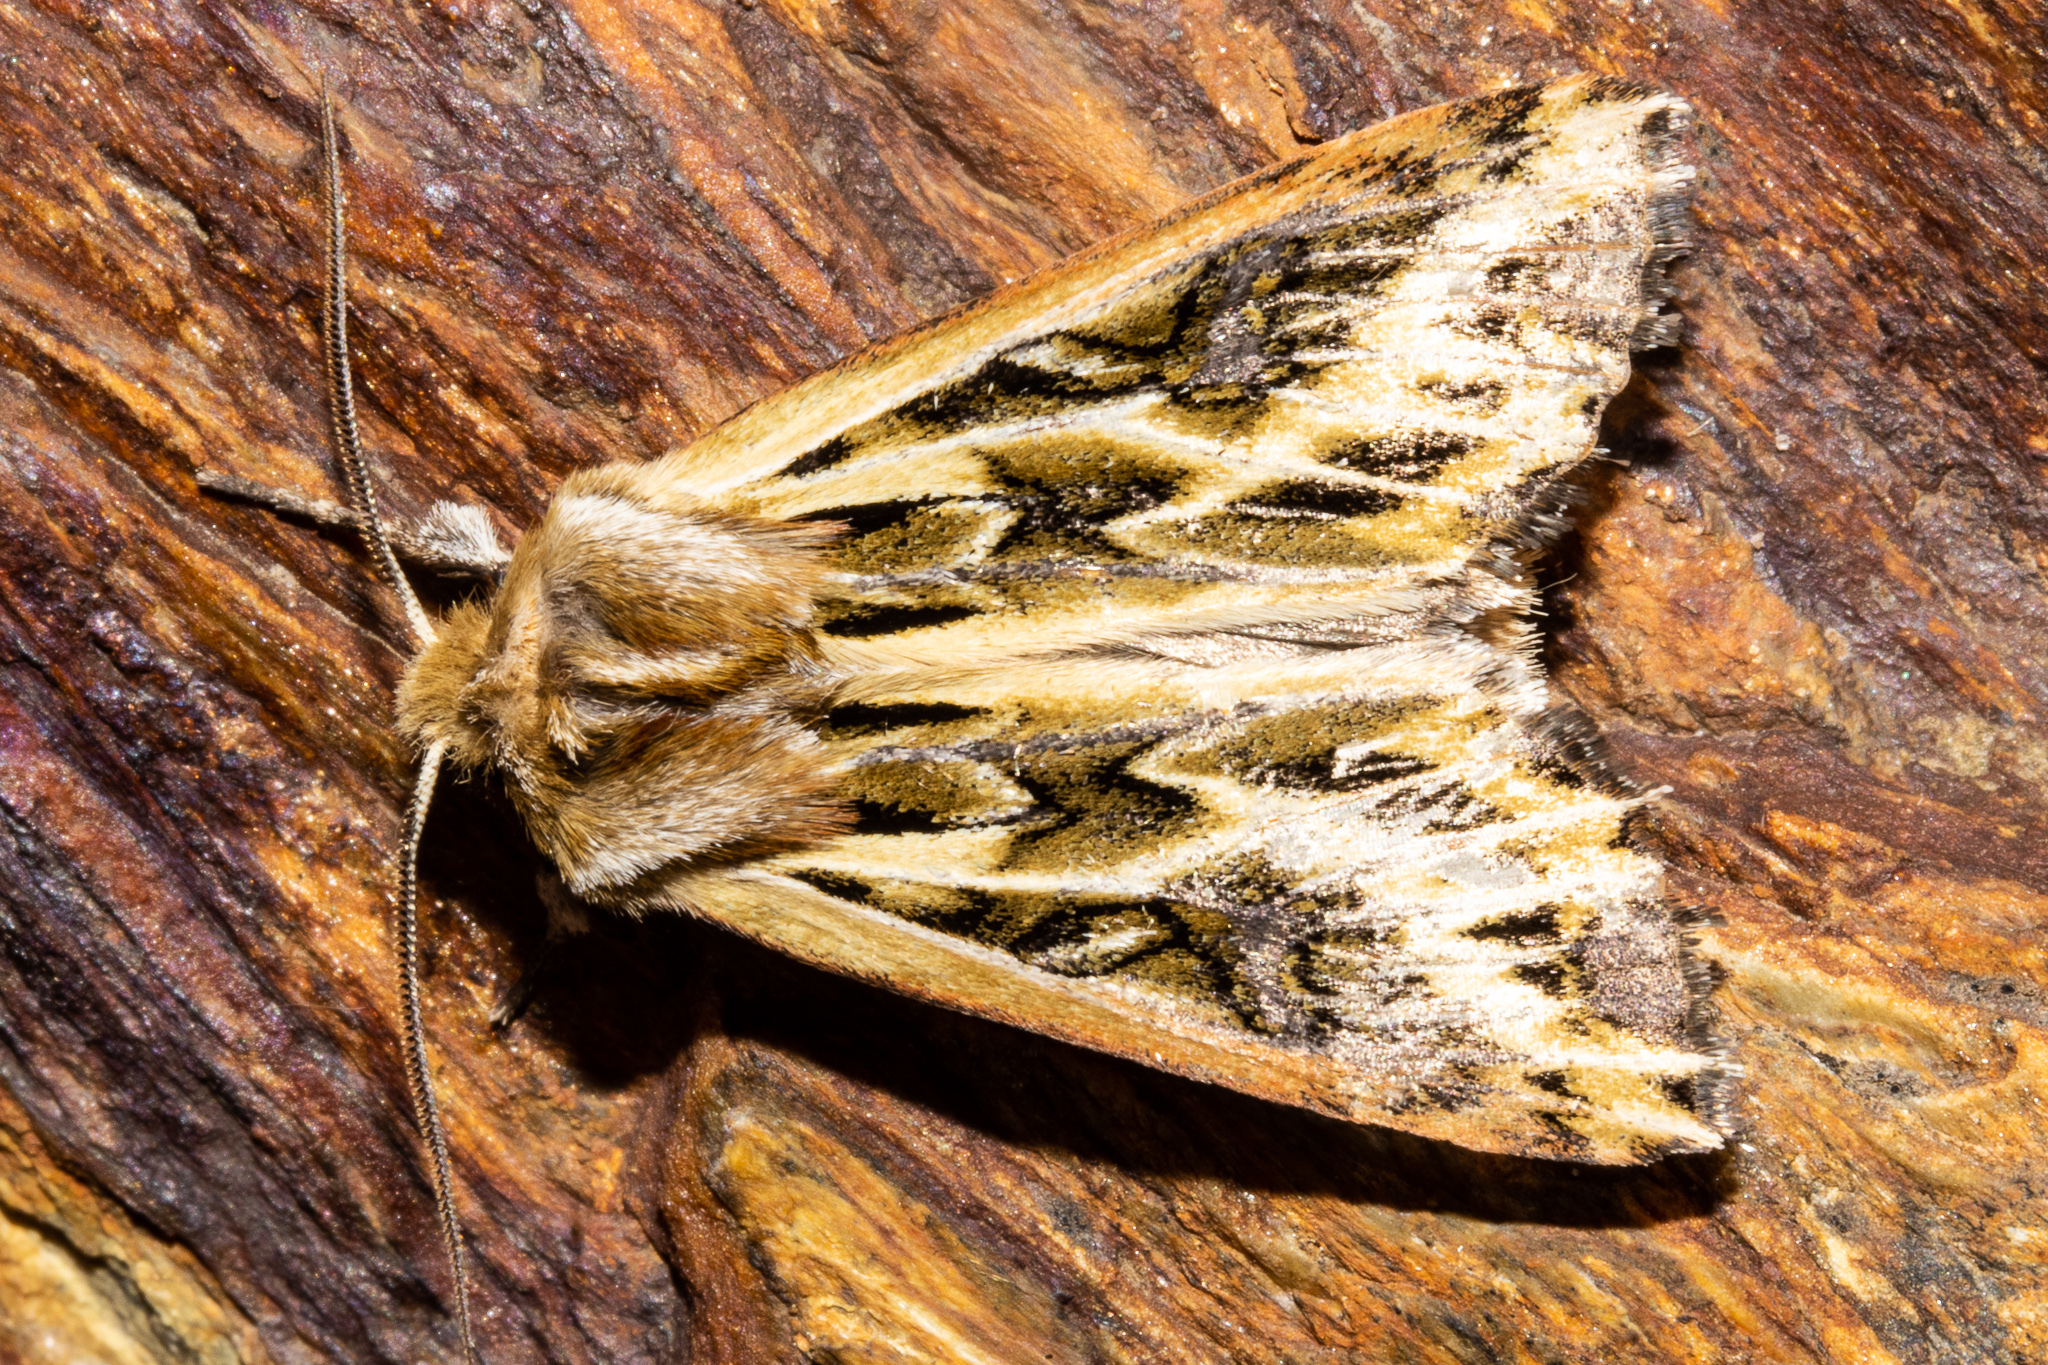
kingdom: Animalia
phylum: Arthropoda
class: Insecta
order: Lepidoptera
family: Noctuidae
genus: Ichneutica
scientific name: Ichneutica
